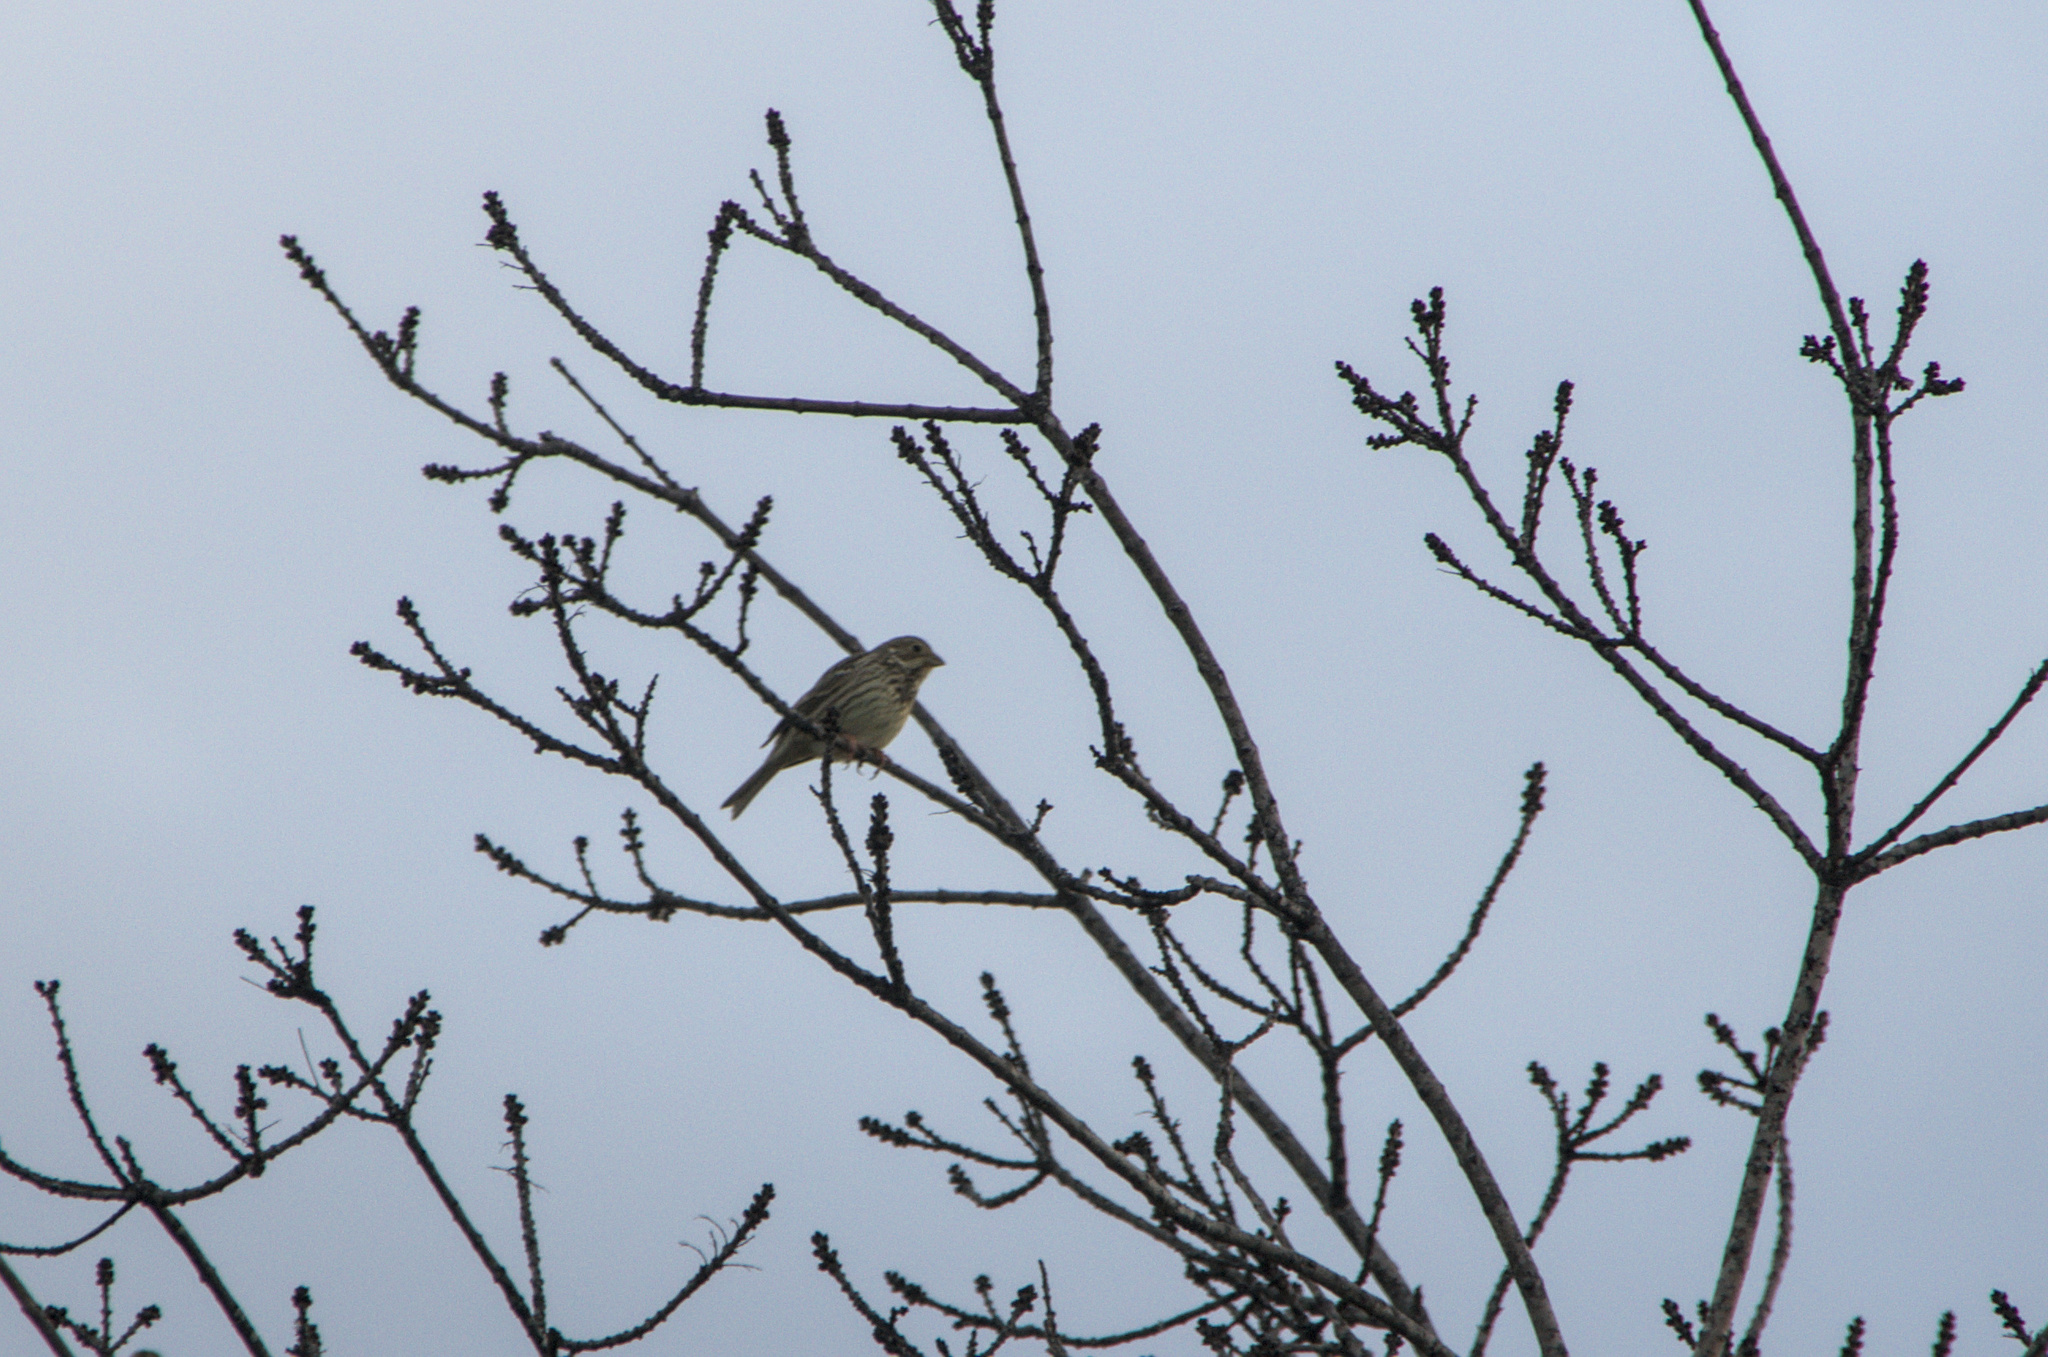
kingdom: Animalia
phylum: Chordata
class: Aves
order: Passeriformes
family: Emberizidae
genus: Emberiza
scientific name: Emberiza calandra
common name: Corn bunting
